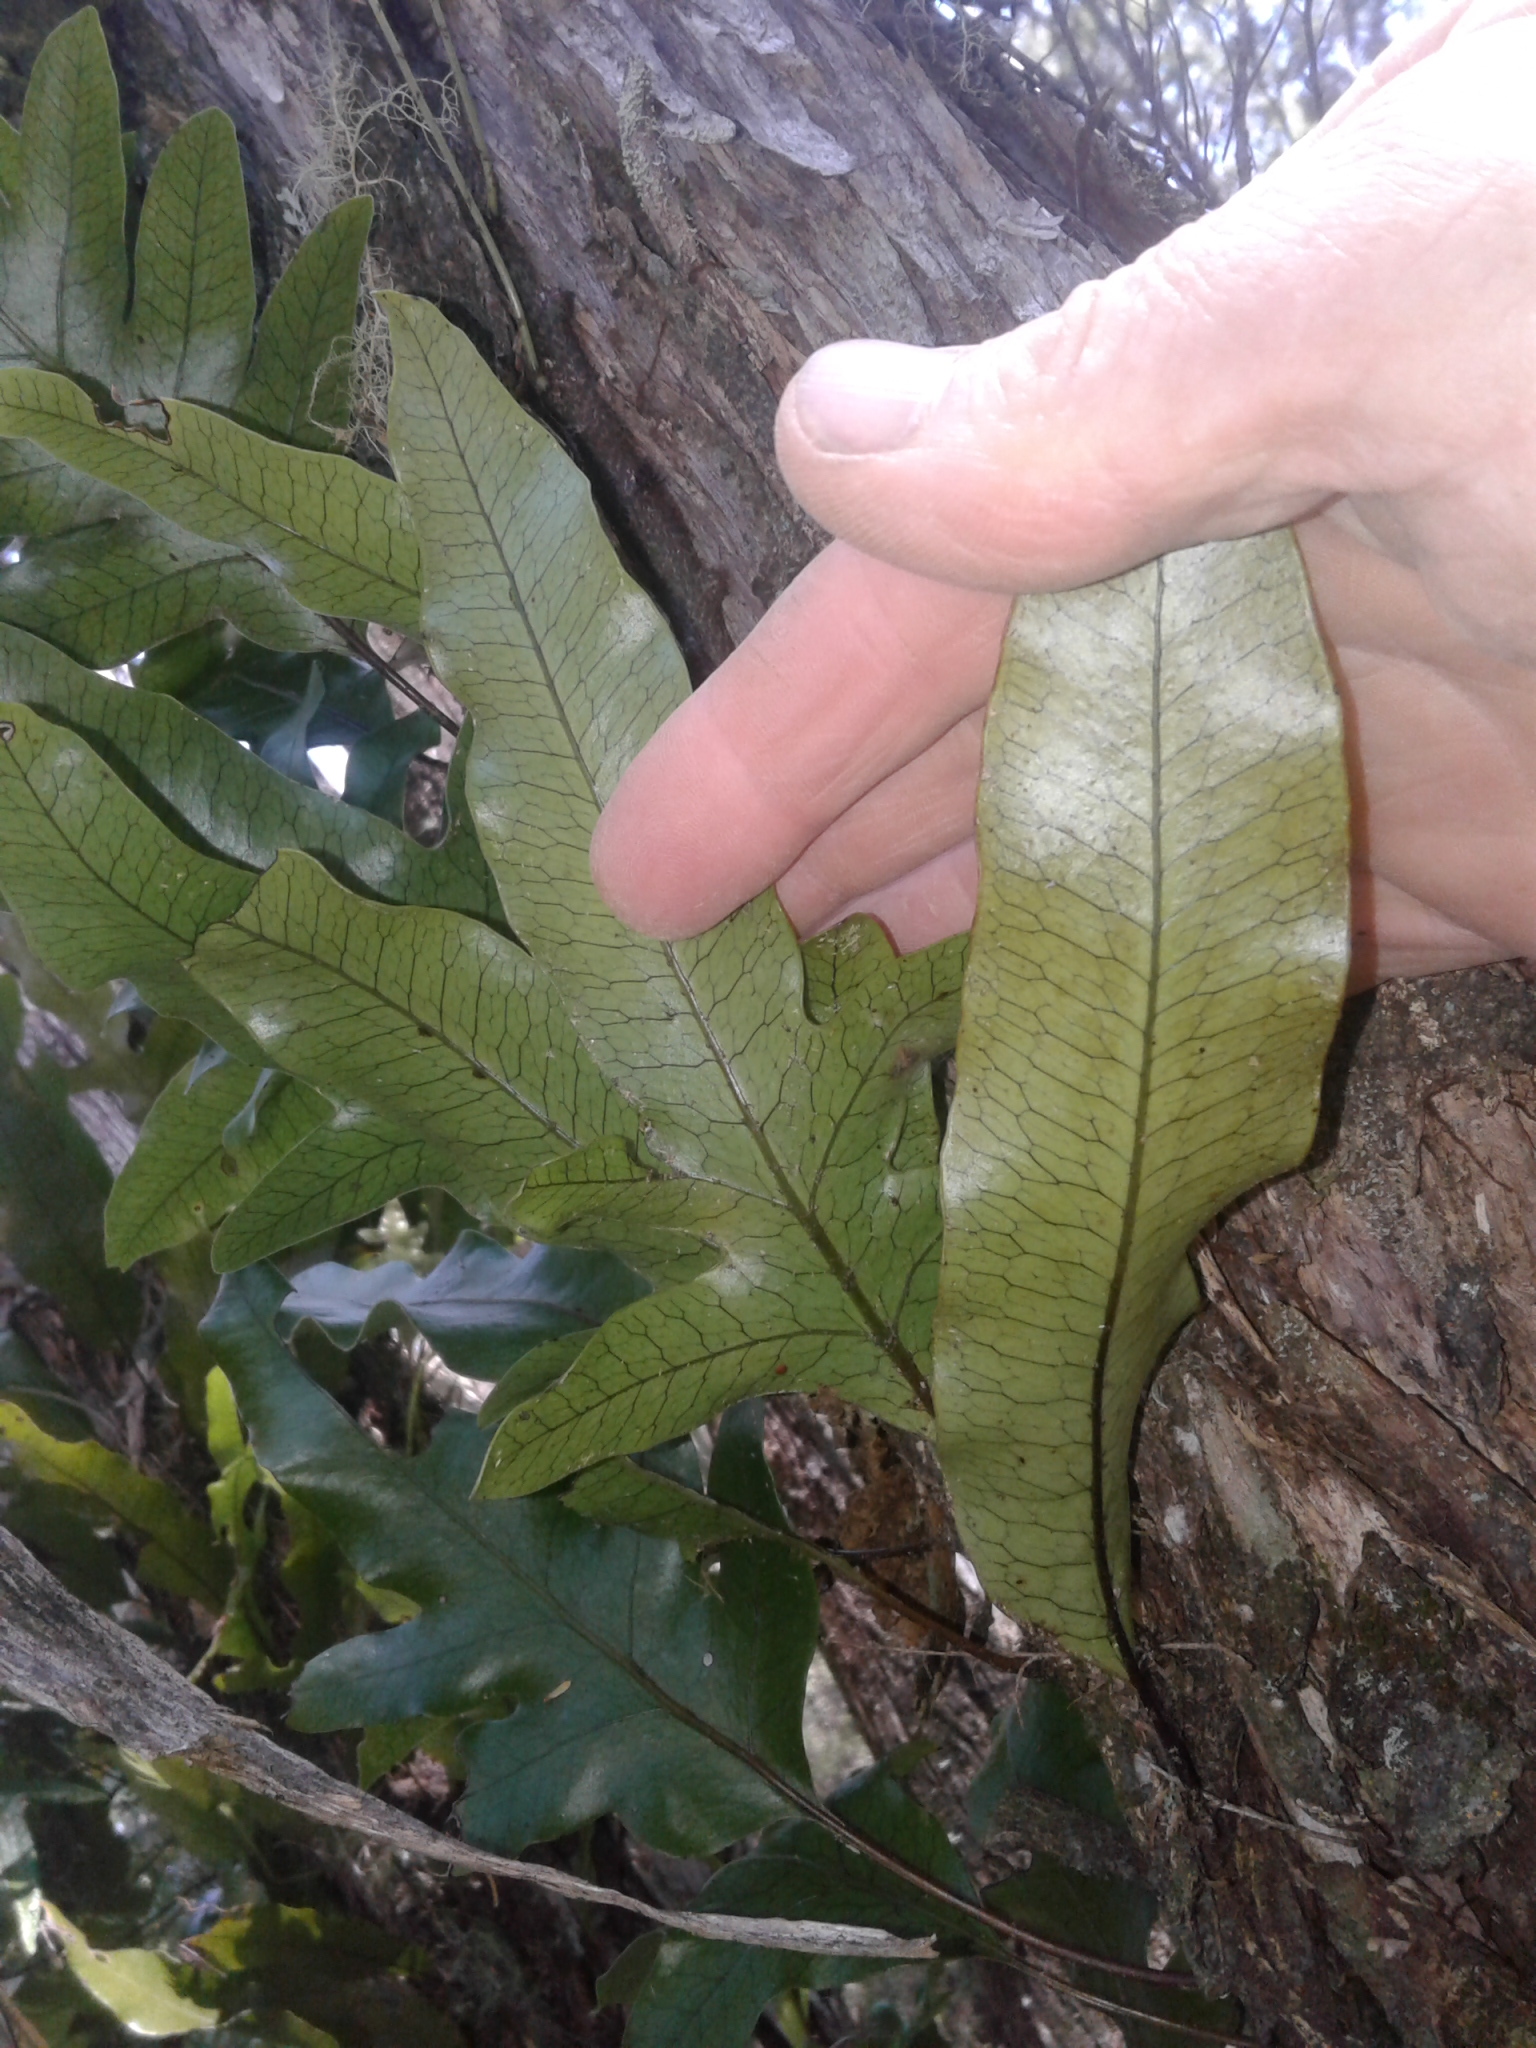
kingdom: Plantae
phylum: Tracheophyta
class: Polypodiopsida
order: Polypodiales
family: Polypodiaceae
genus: Lecanopteris
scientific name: Lecanopteris pustulata
